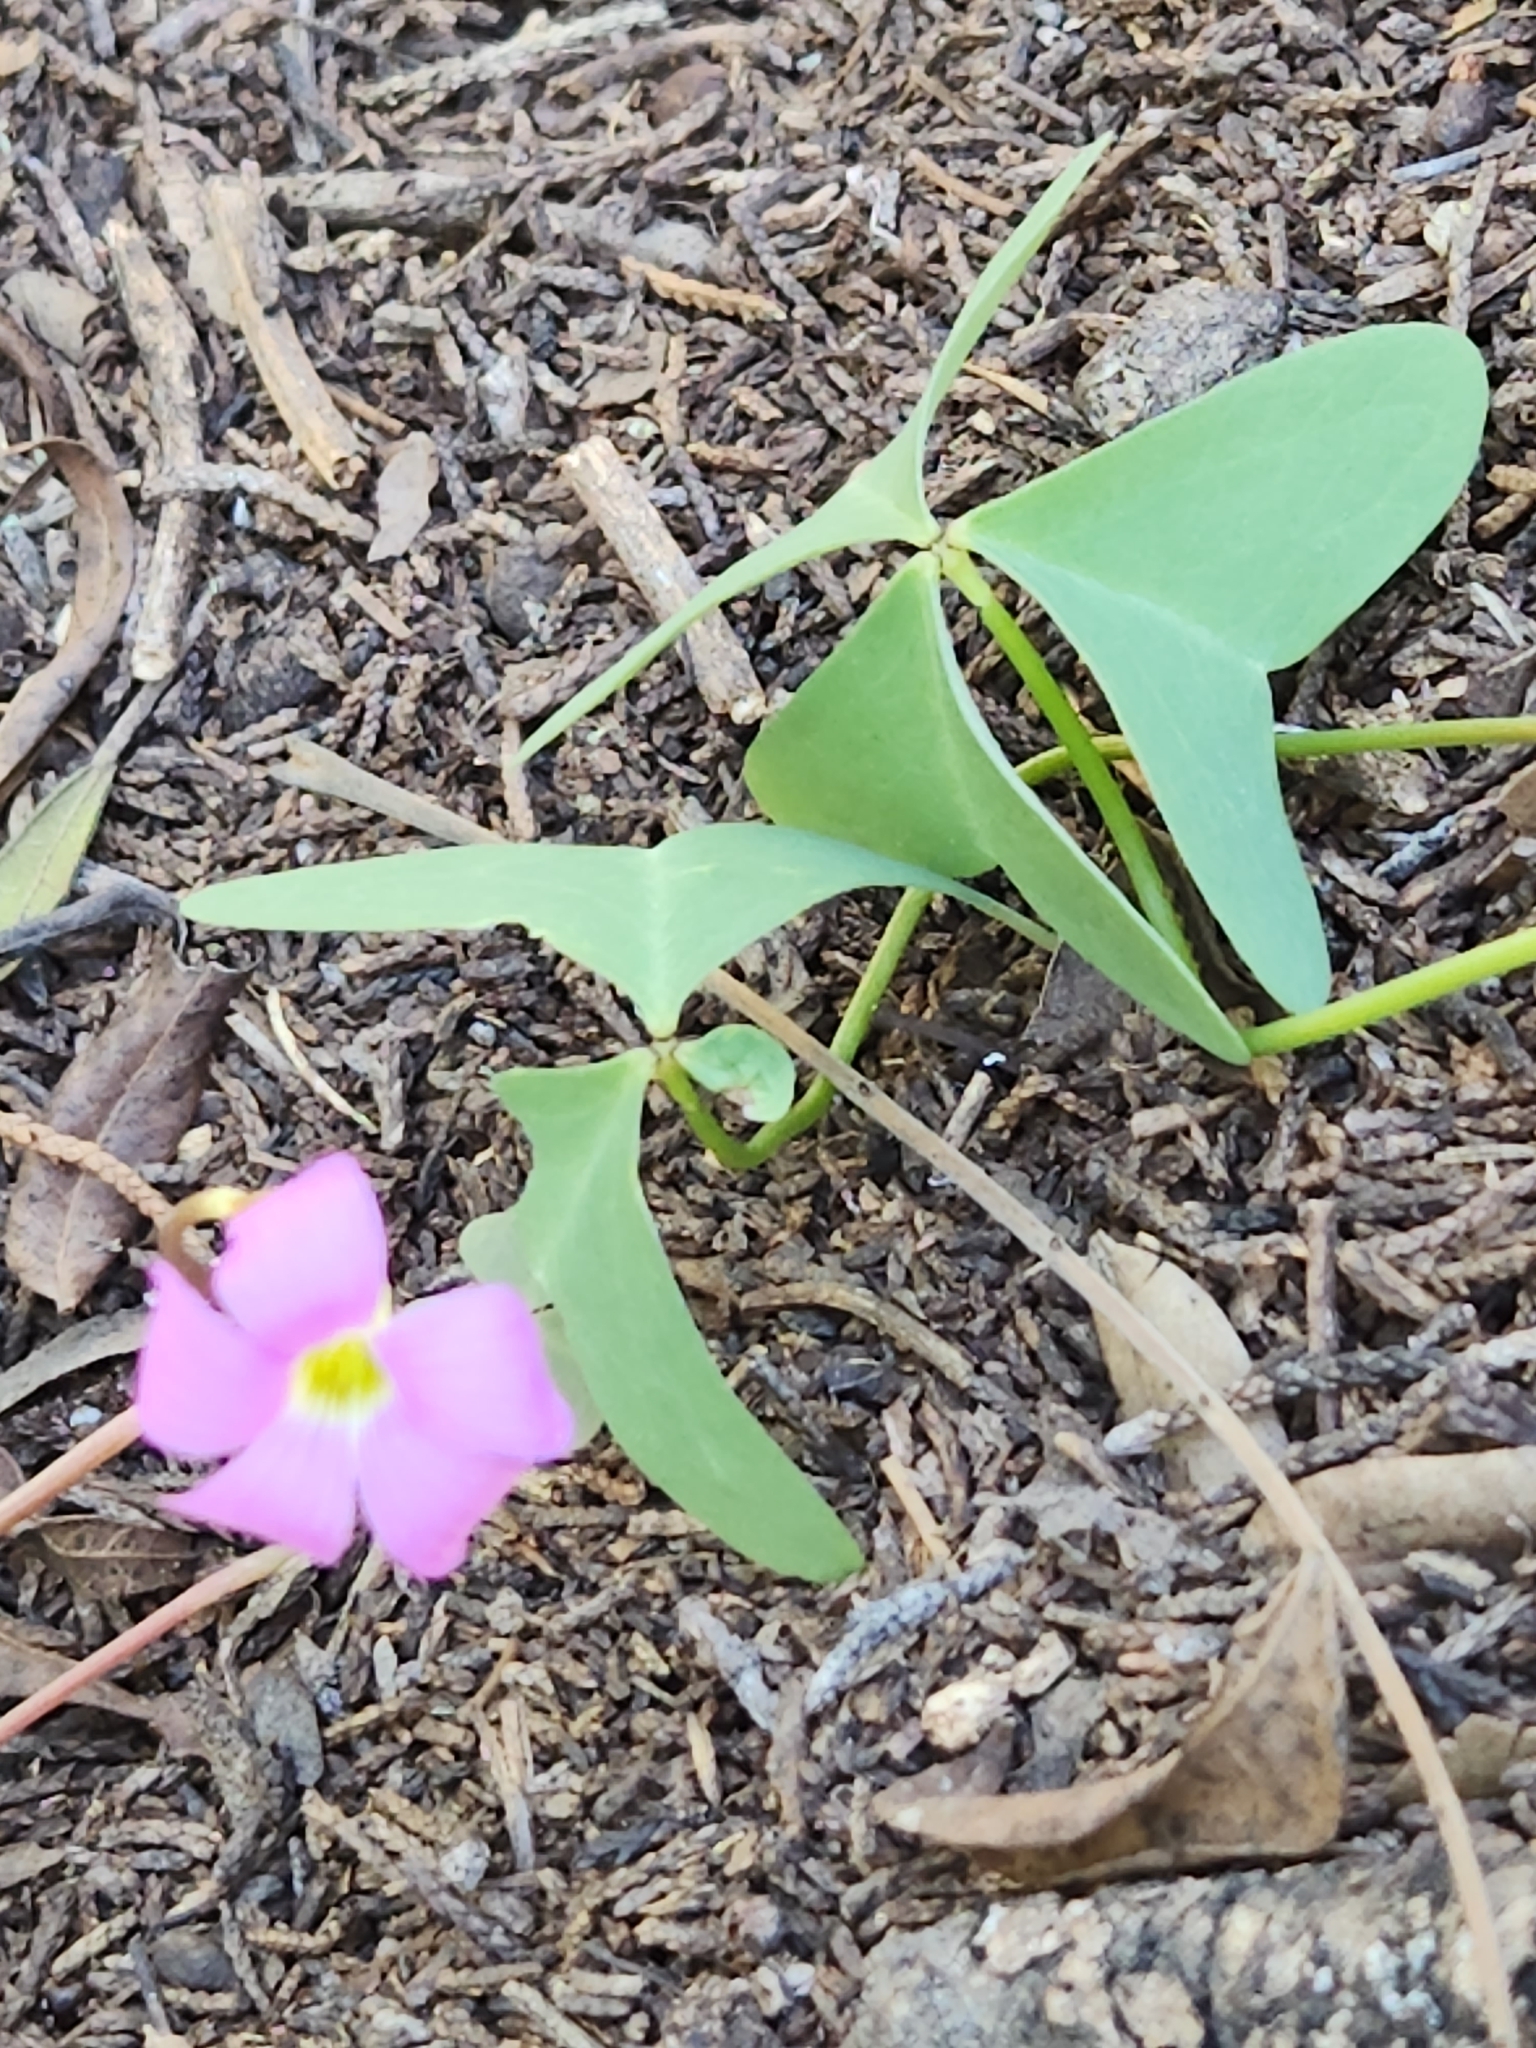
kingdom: Plantae
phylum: Tracheophyta
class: Magnoliopsida
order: Oxalidales
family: Oxalidaceae
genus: Oxalis
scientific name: Oxalis drummondii
